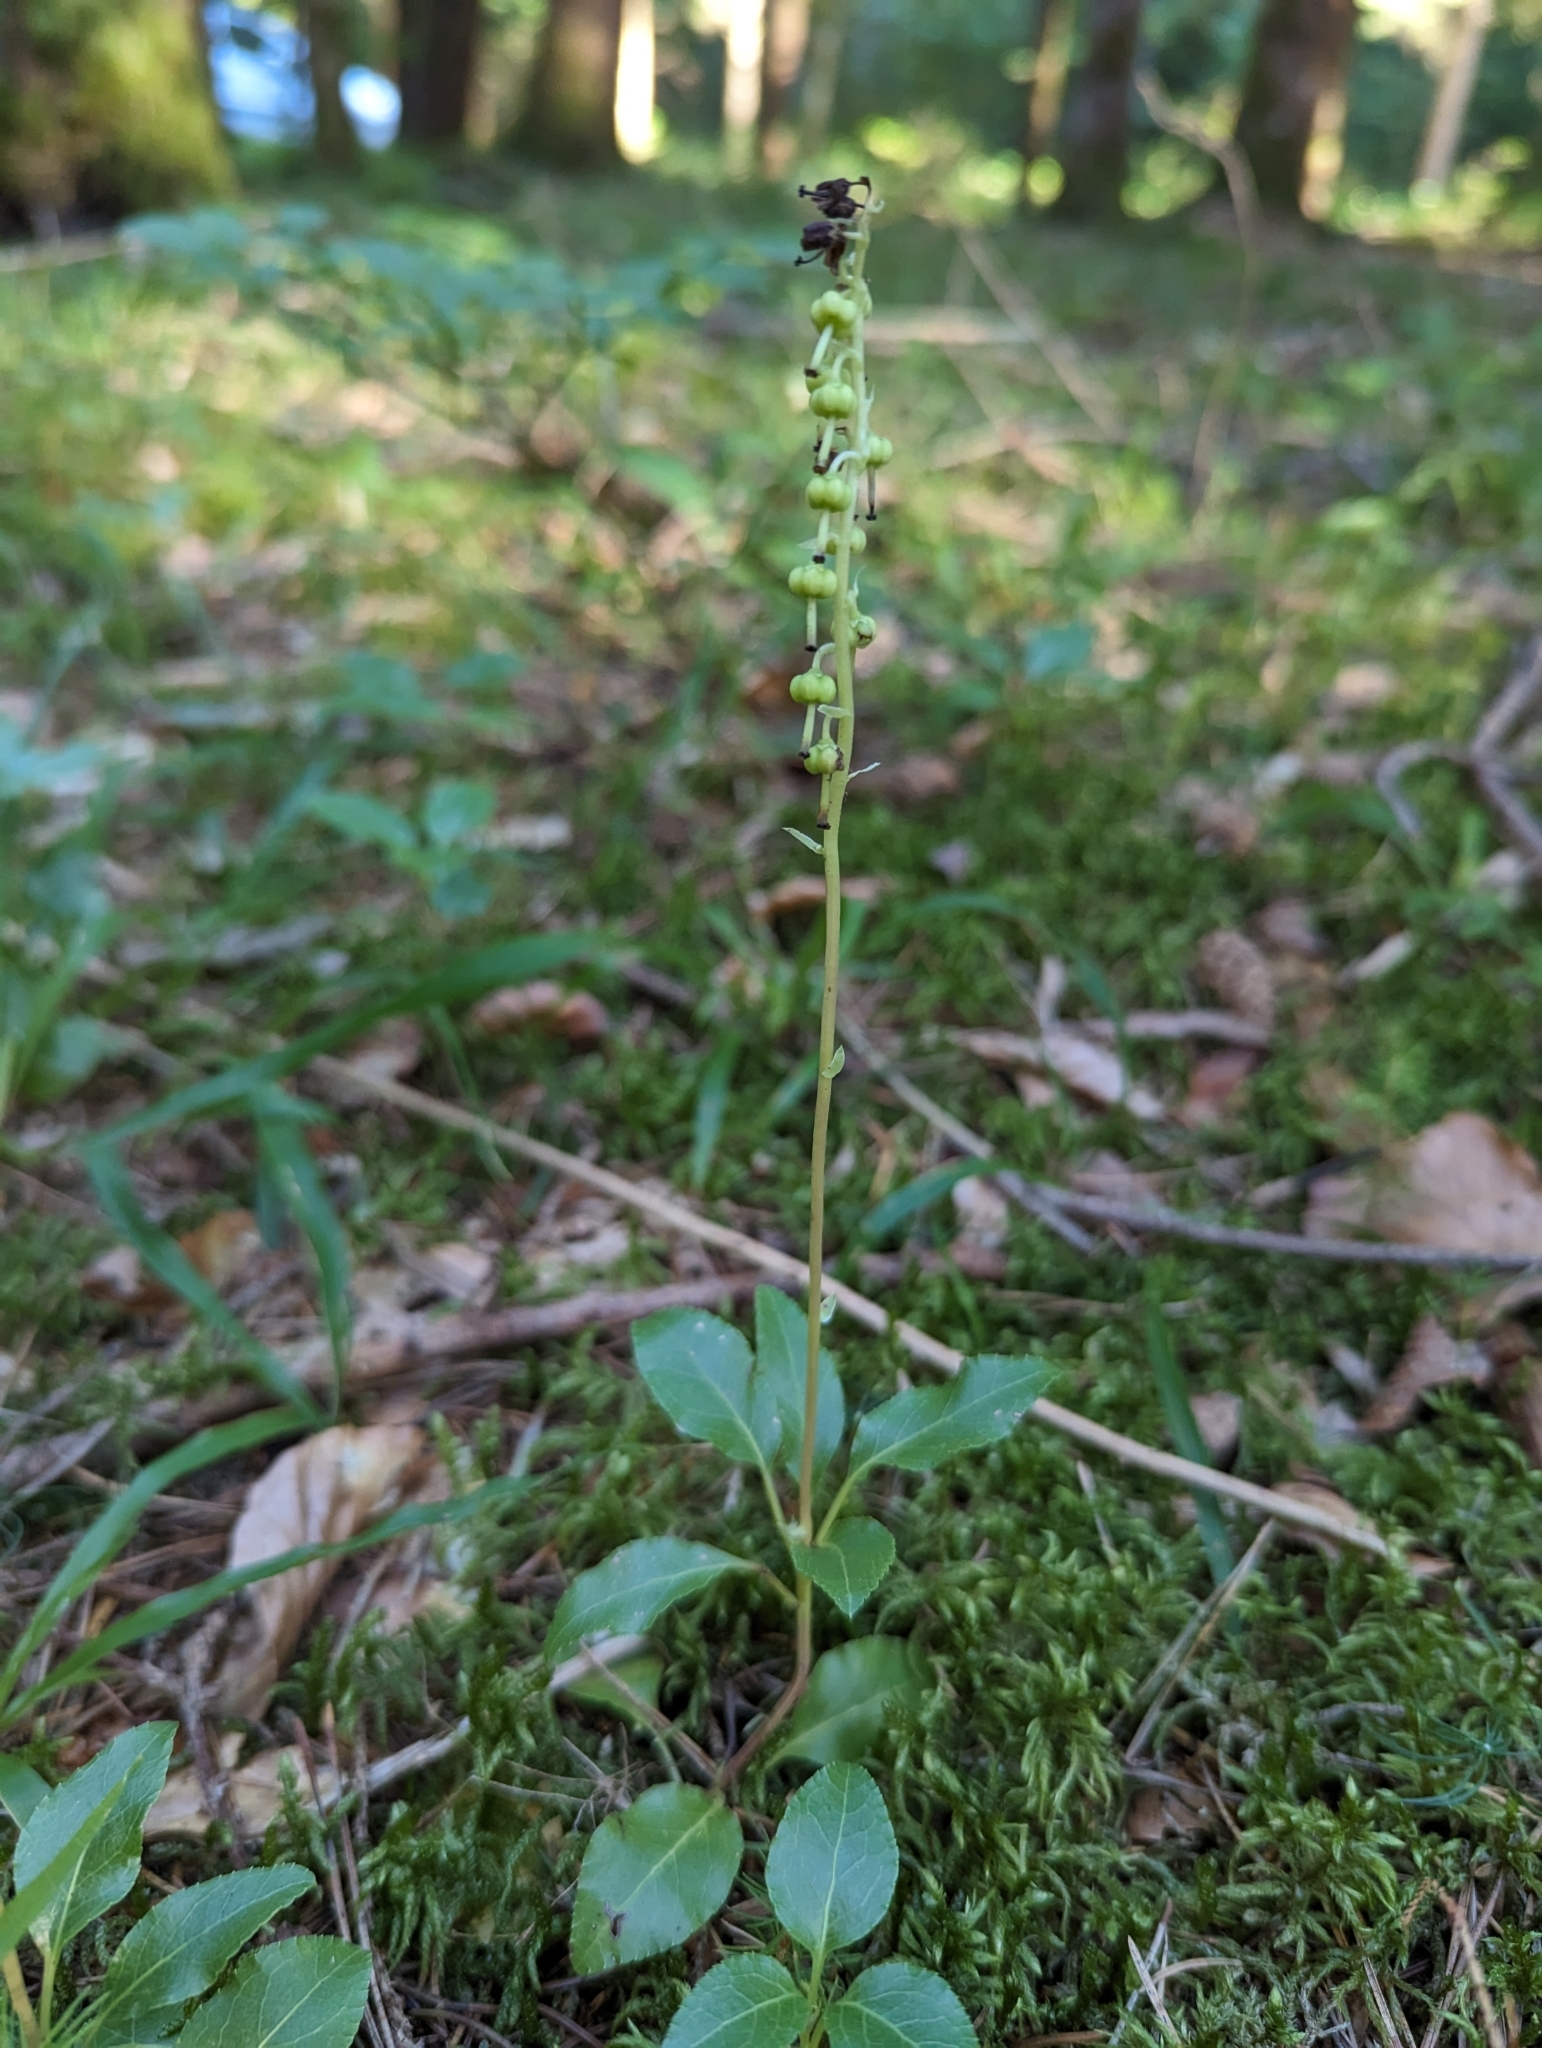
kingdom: Plantae
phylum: Tracheophyta
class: Magnoliopsida
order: Ericales
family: Ericaceae
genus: Orthilia
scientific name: Orthilia secunda
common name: One-sided orthilia
